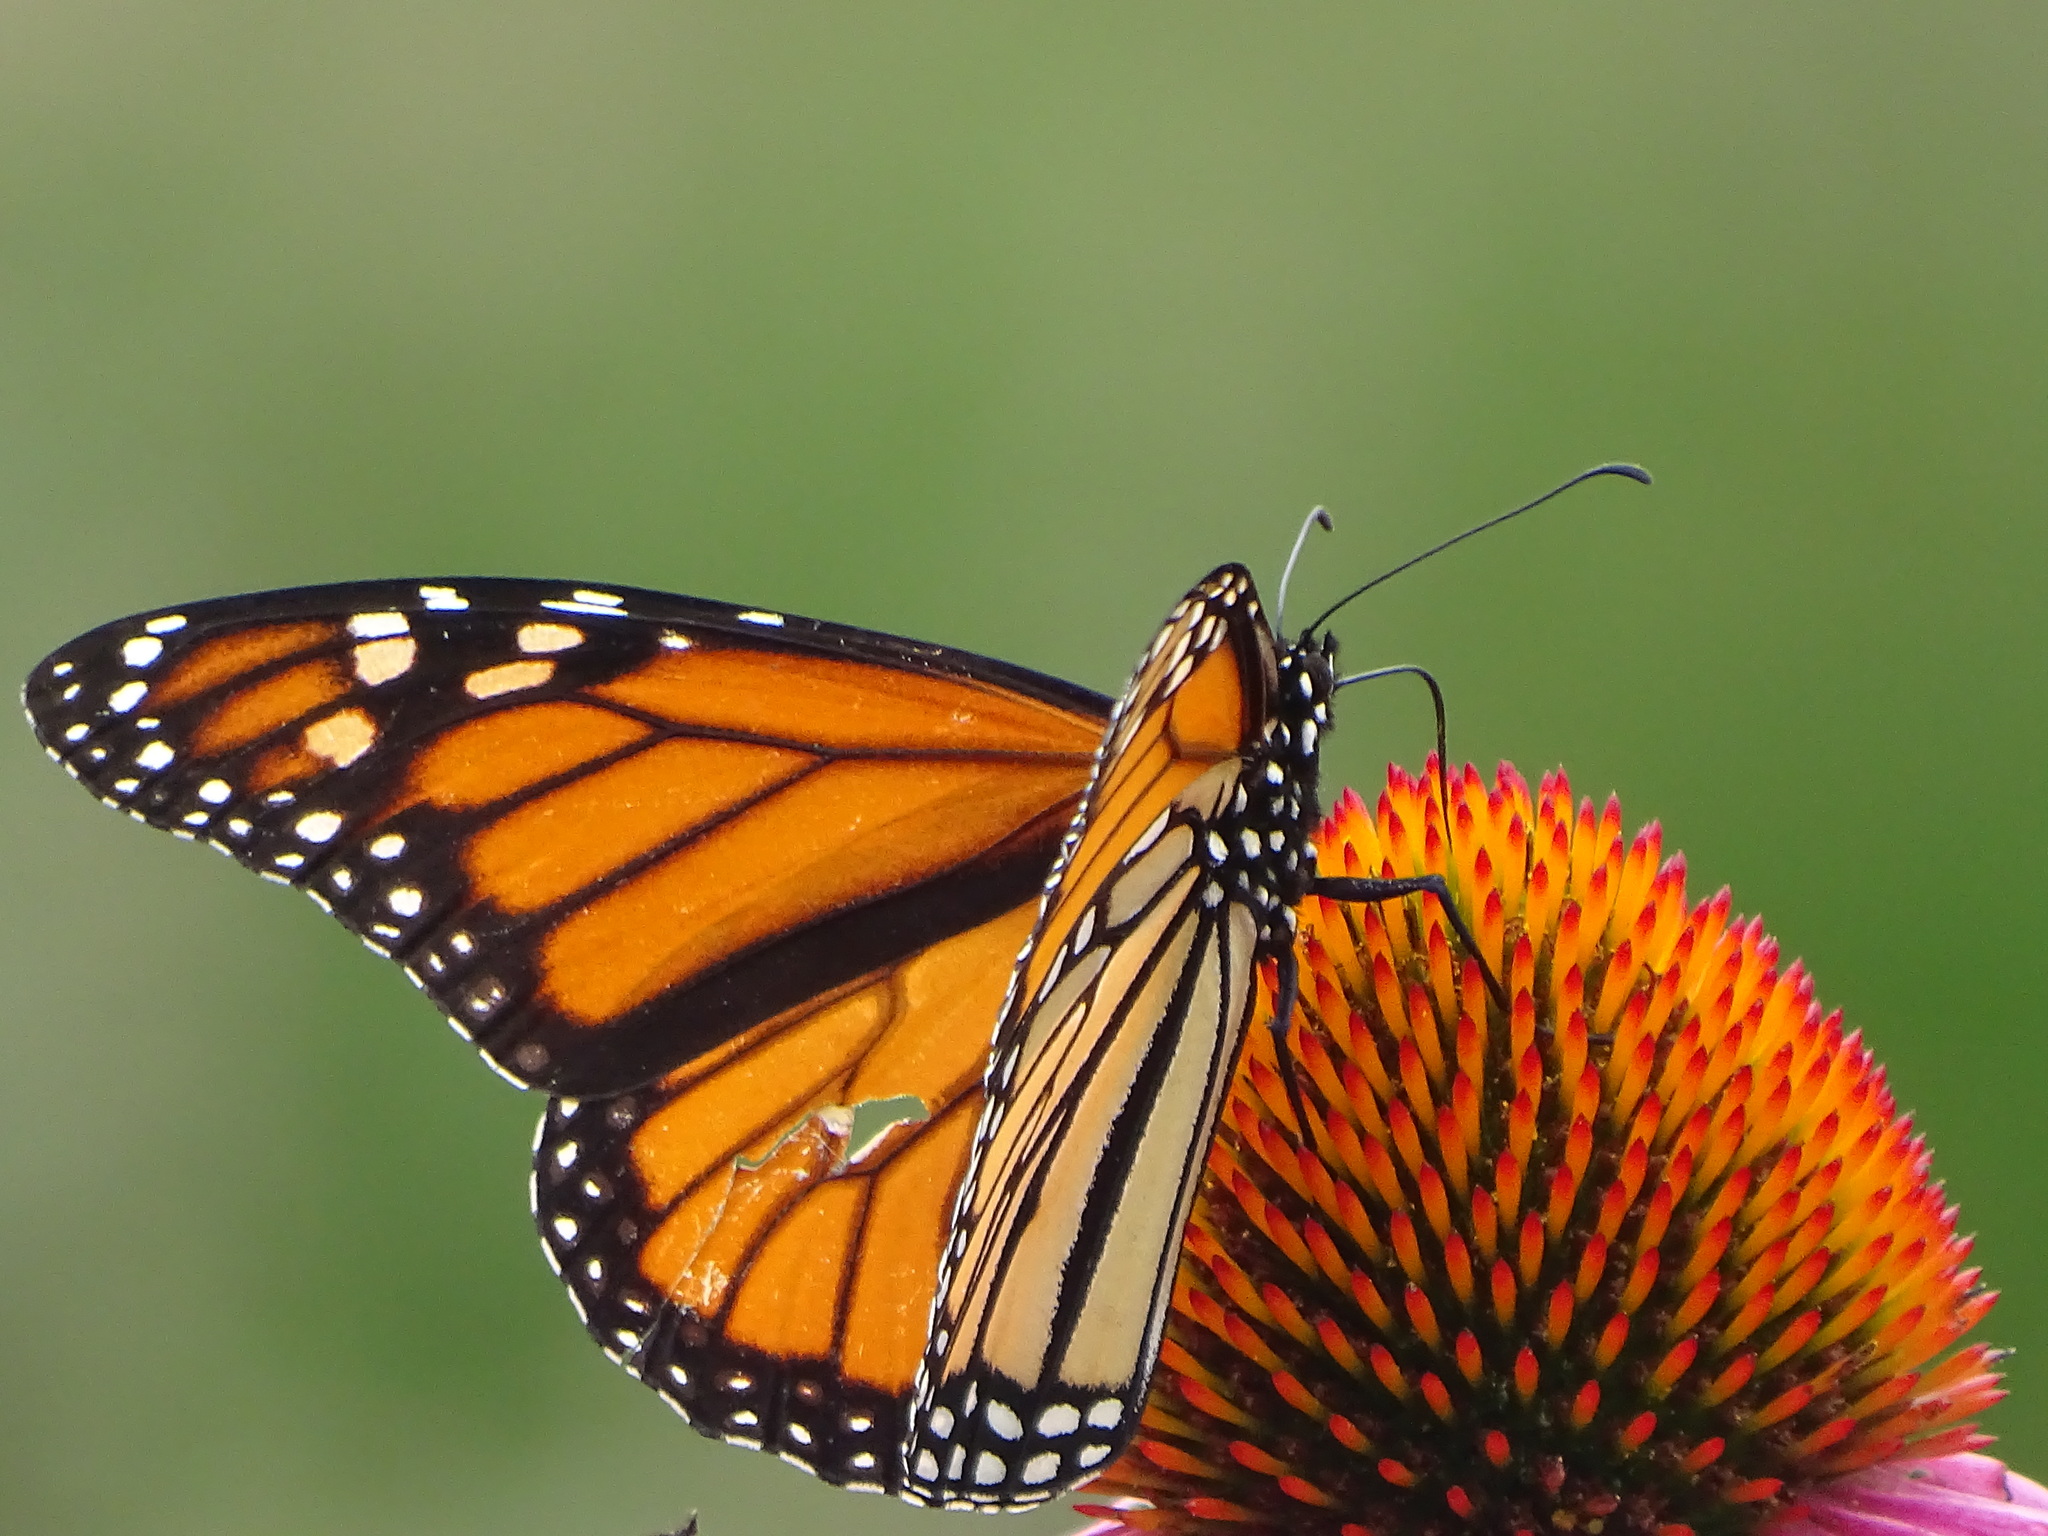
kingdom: Animalia
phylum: Arthropoda
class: Insecta
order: Lepidoptera
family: Nymphalidae
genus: Danaus
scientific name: Danaus plexippus
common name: Monarch
